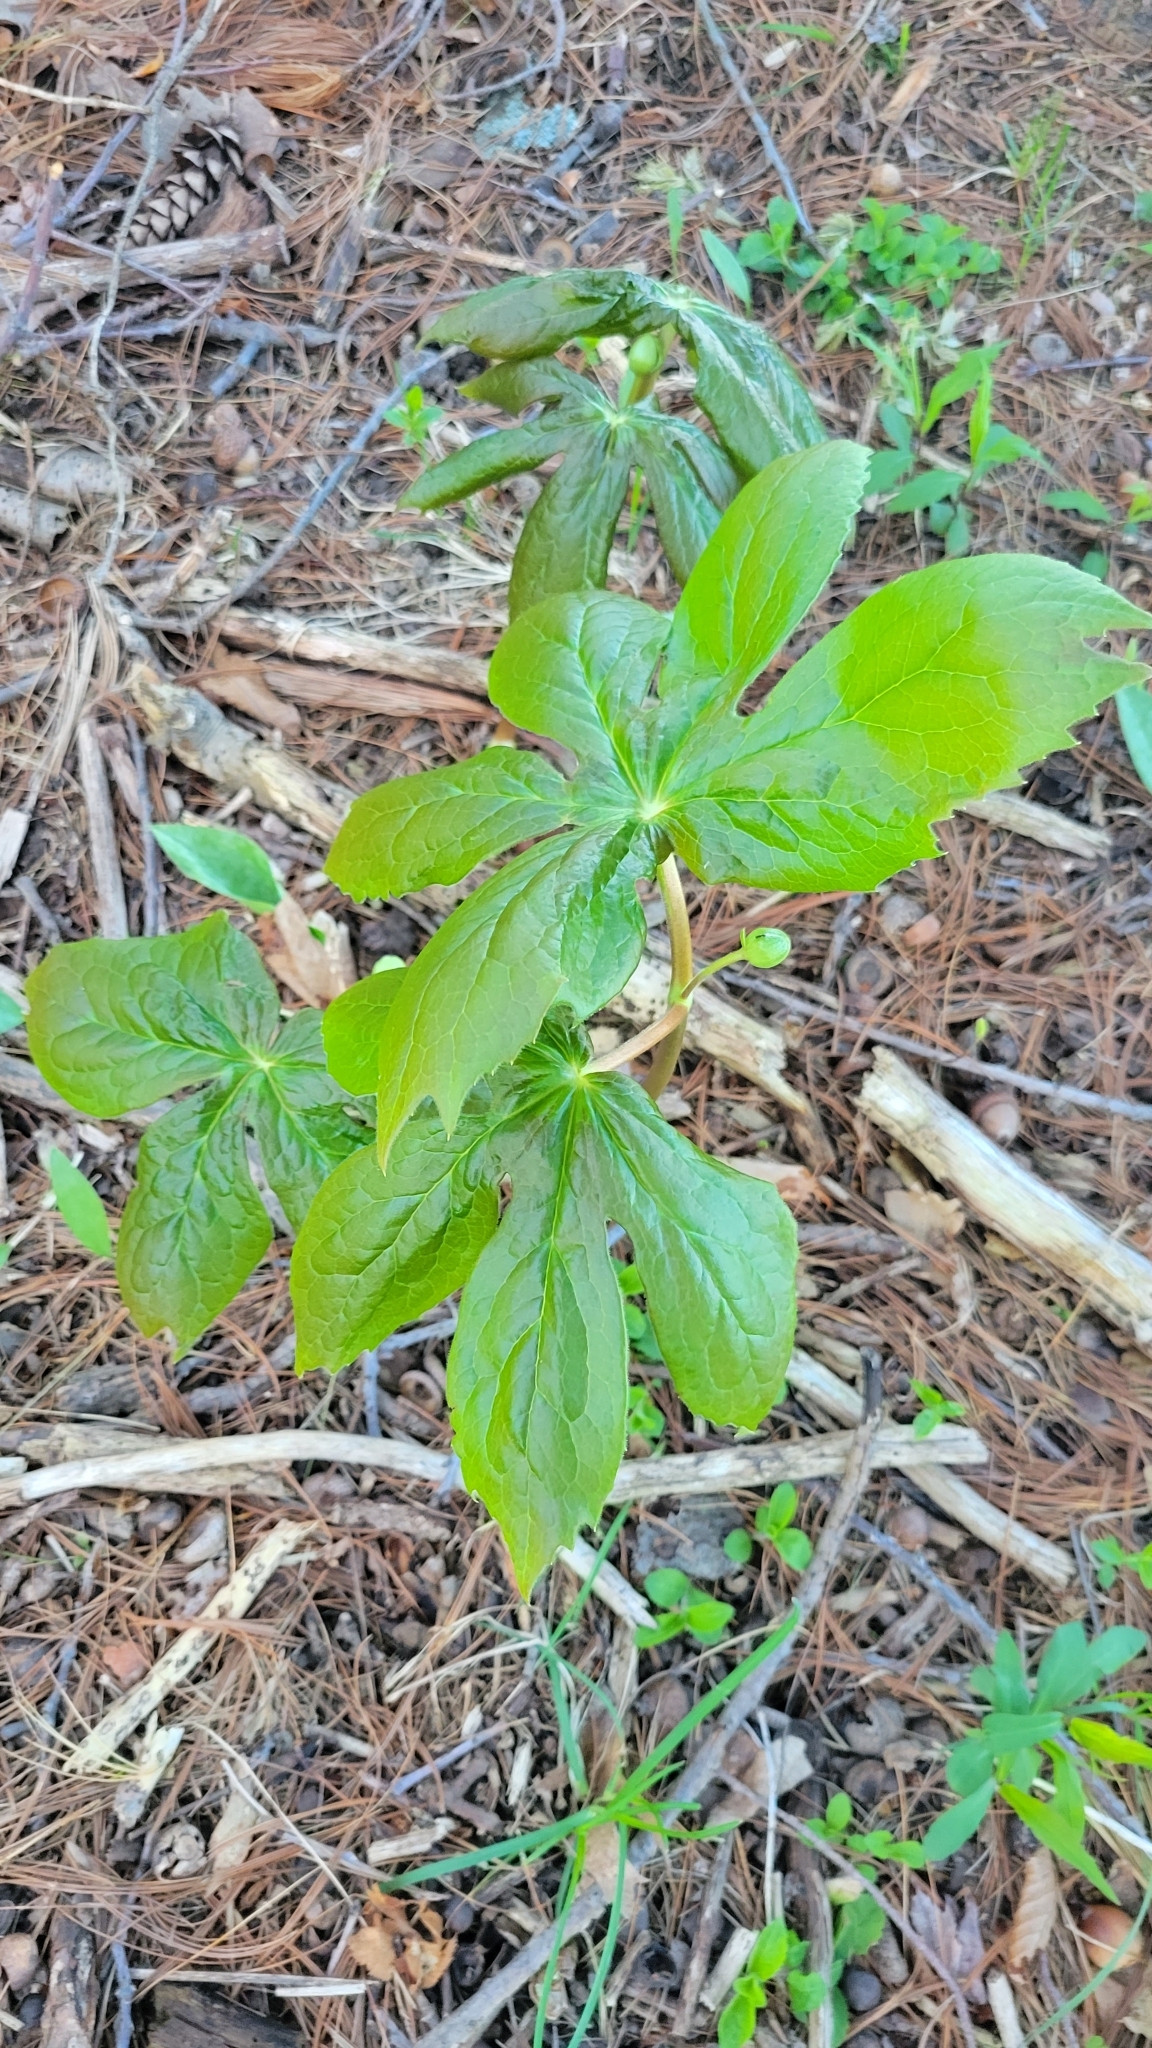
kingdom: Plantae
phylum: Tracheophyta
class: Magnoliopsida
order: Ranunculales
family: Berberidaceae
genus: Podophyllum
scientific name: Podophyllum peltatum
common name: Wild mandrake
